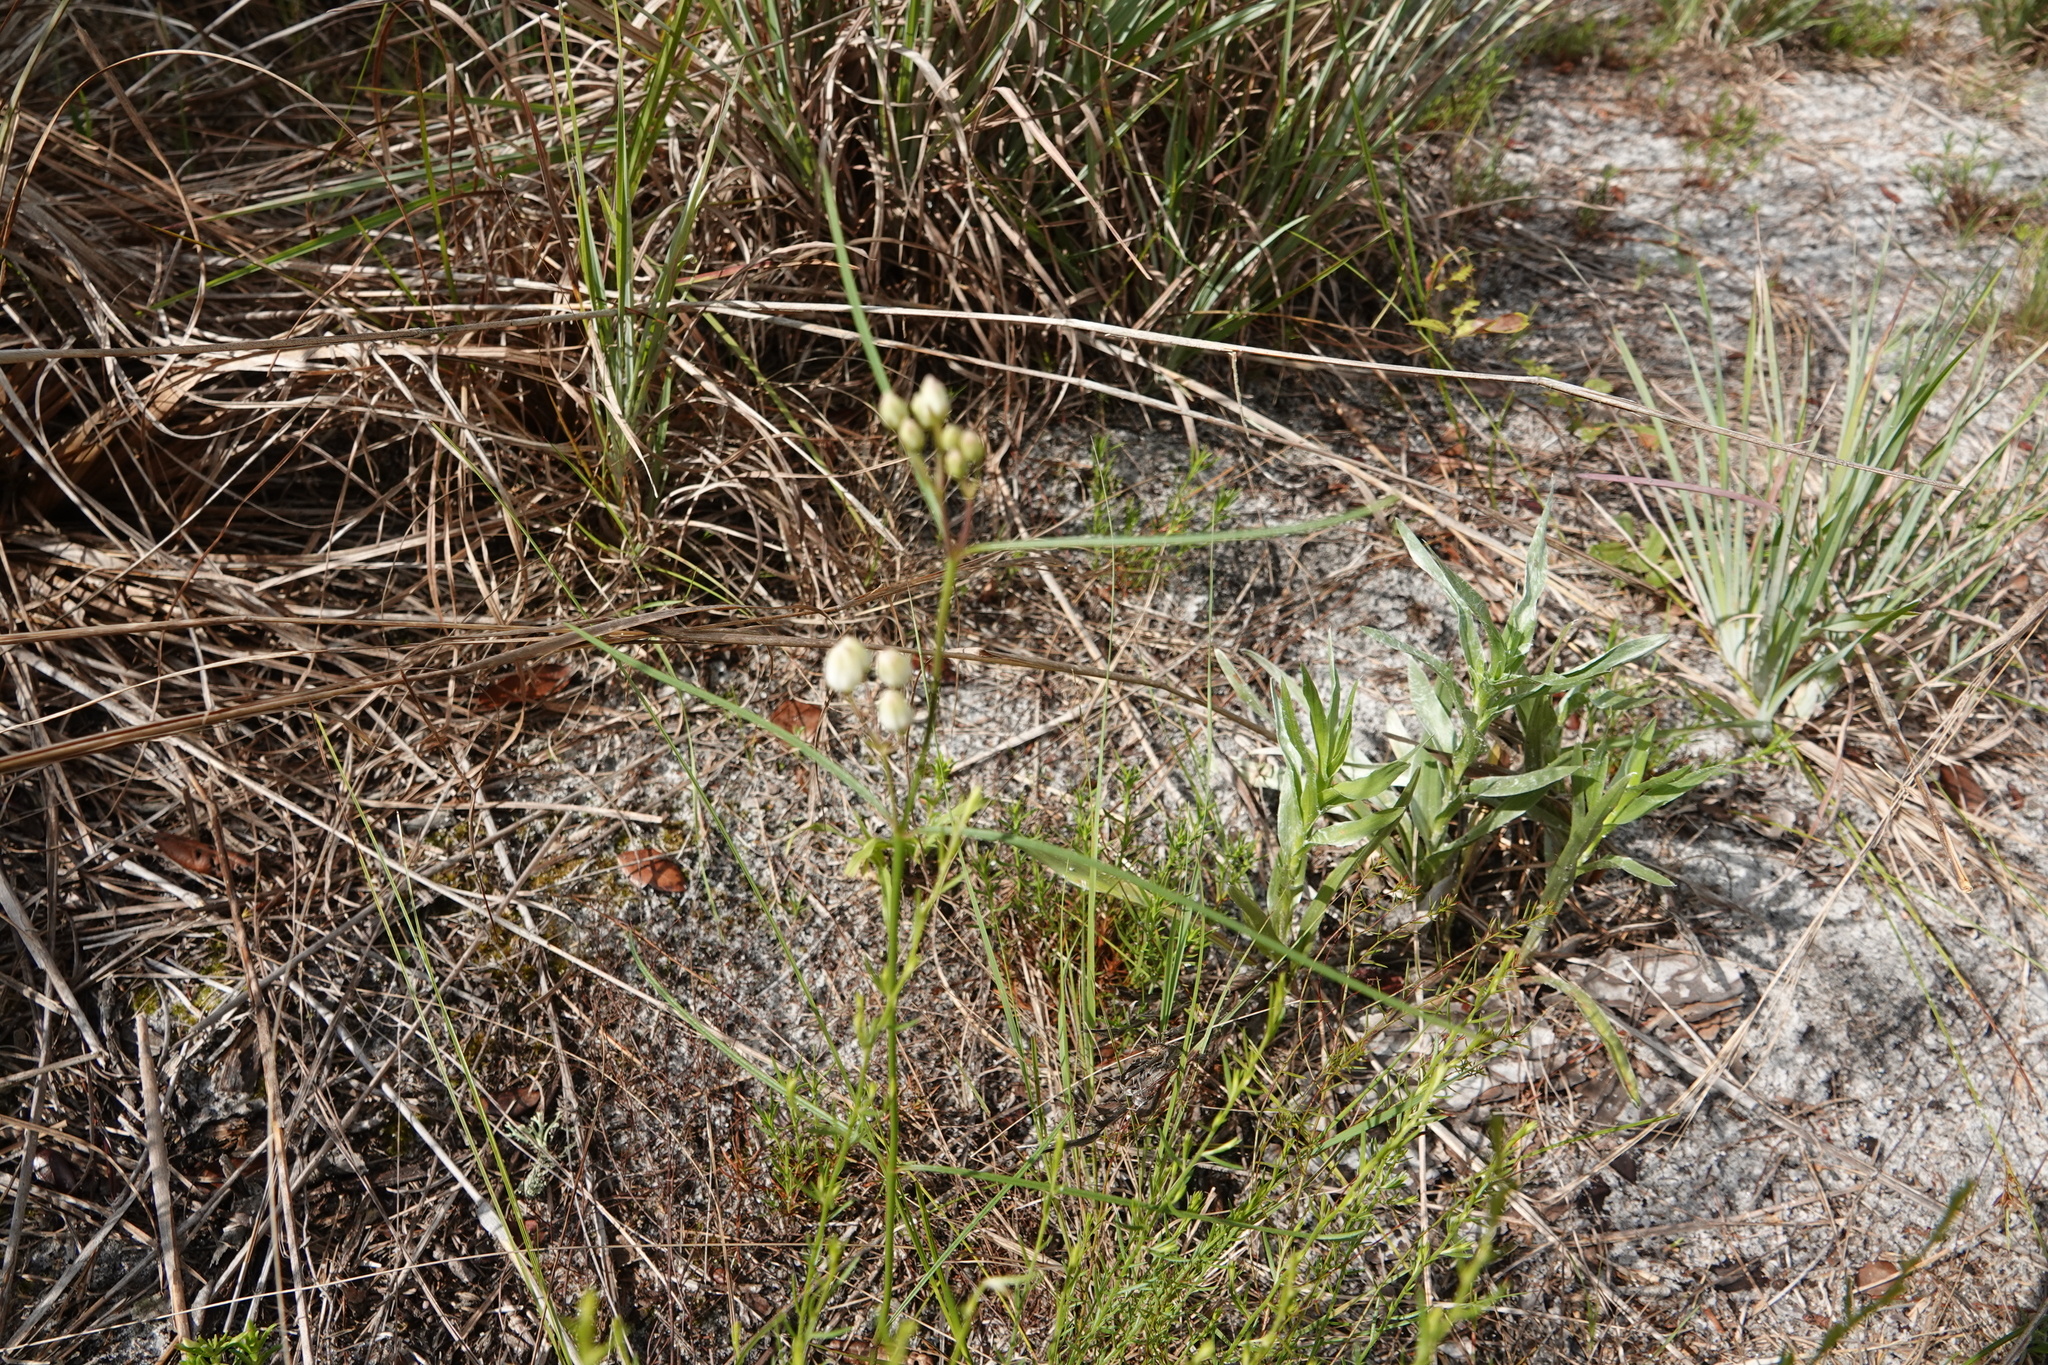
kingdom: Plantae
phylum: Tracheophyta
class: Magnoliopsida
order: Gentianales
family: Apocynaceae
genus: Asclepias
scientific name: Asclepias feayi
